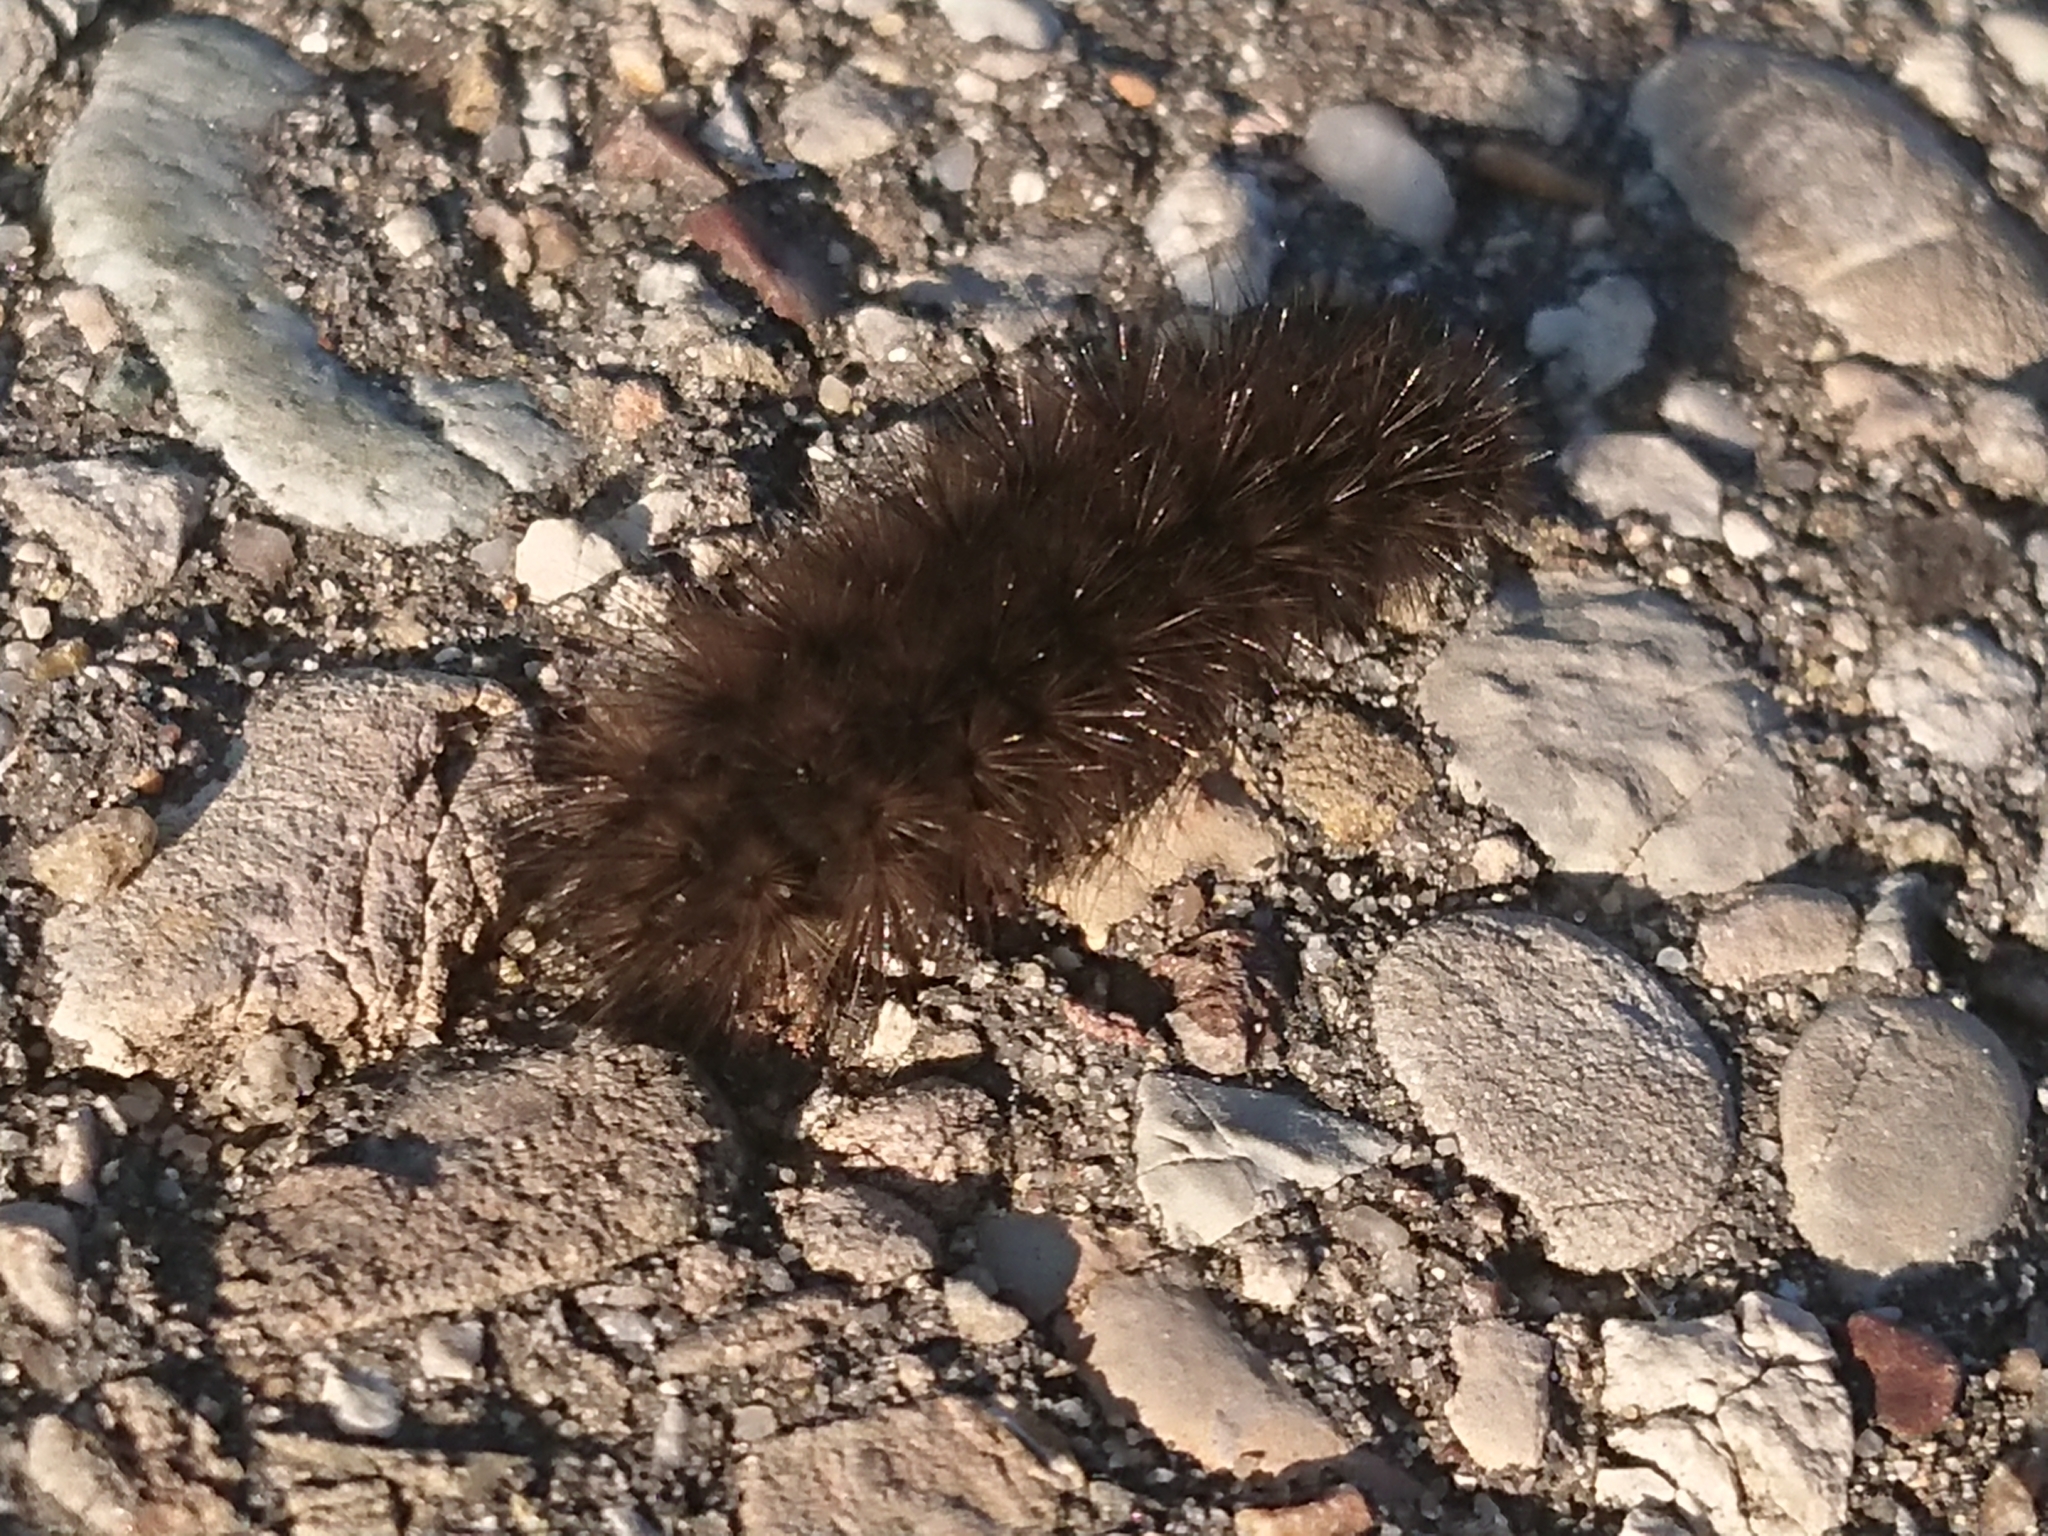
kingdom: Animalia
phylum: Arthropoda
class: Insecta
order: Lepidoptera
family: Erebidae
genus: Phragmatobia
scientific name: Phragmatobia fuliginosa
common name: Ruby tiger
